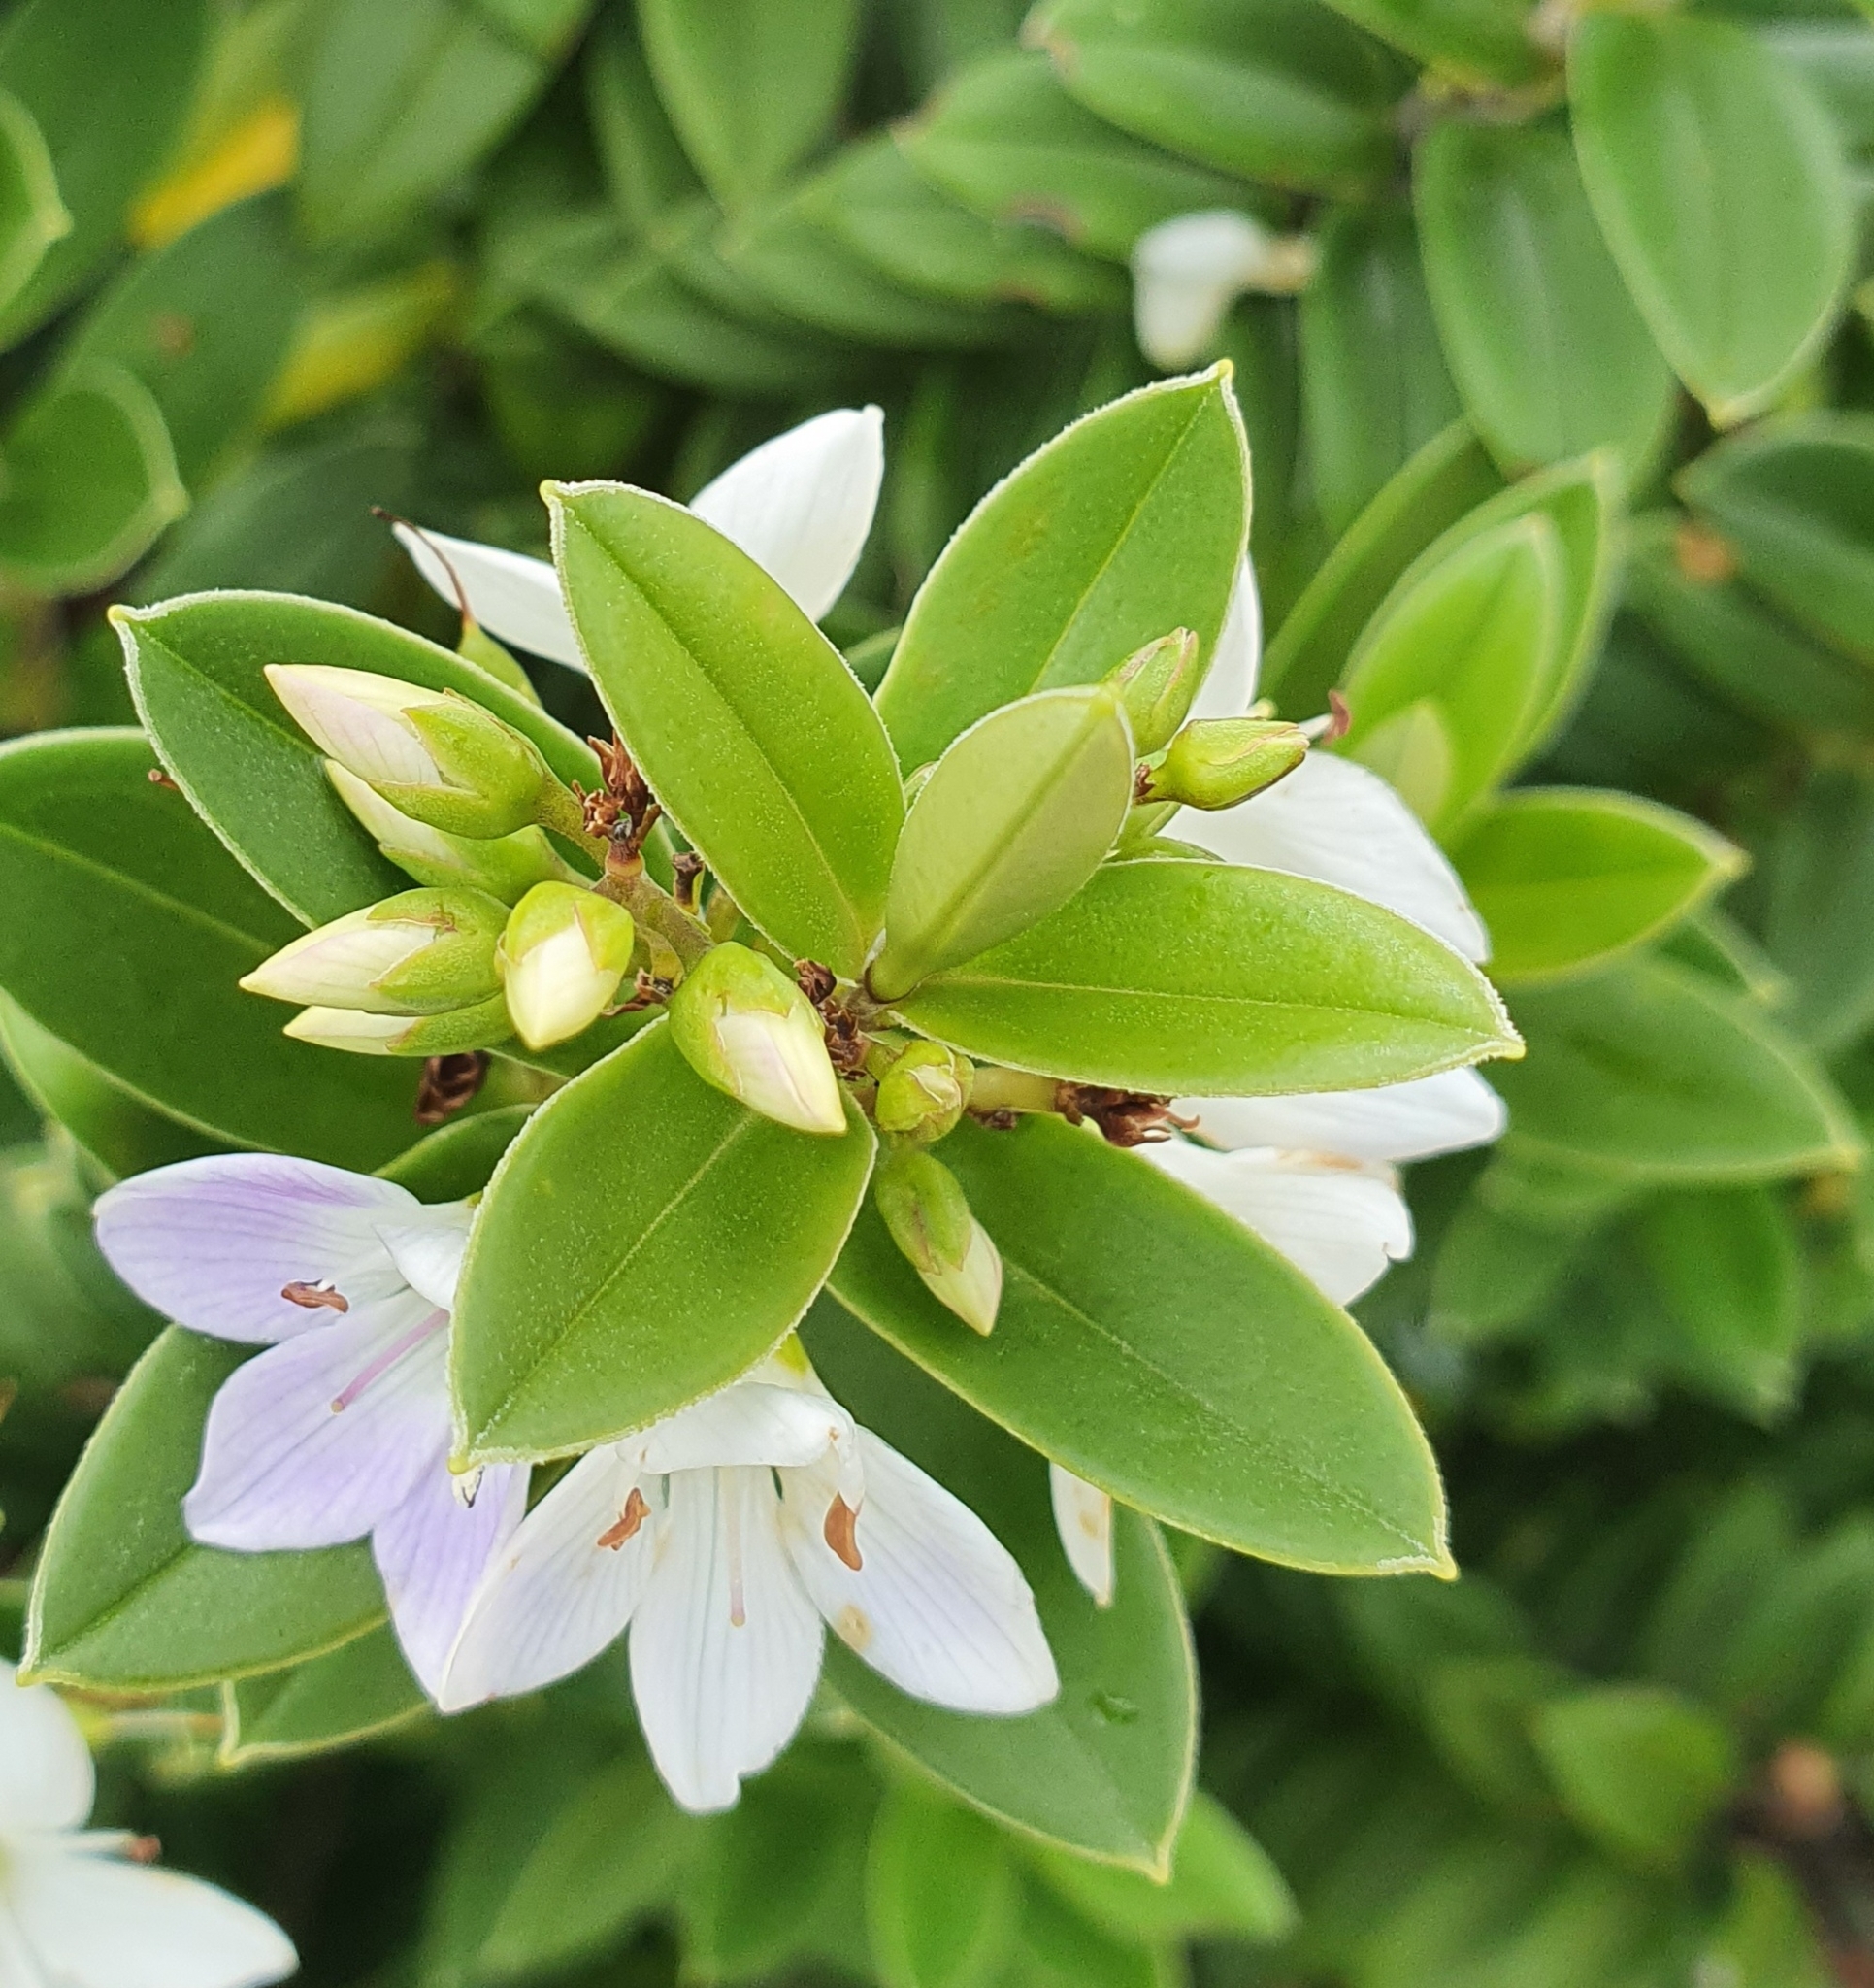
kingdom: Plantae
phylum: Tracheophyta
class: Magnoliopsida
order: Lamiales
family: Plantaginaceae
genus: Veronica
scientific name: Veronica elliptica
